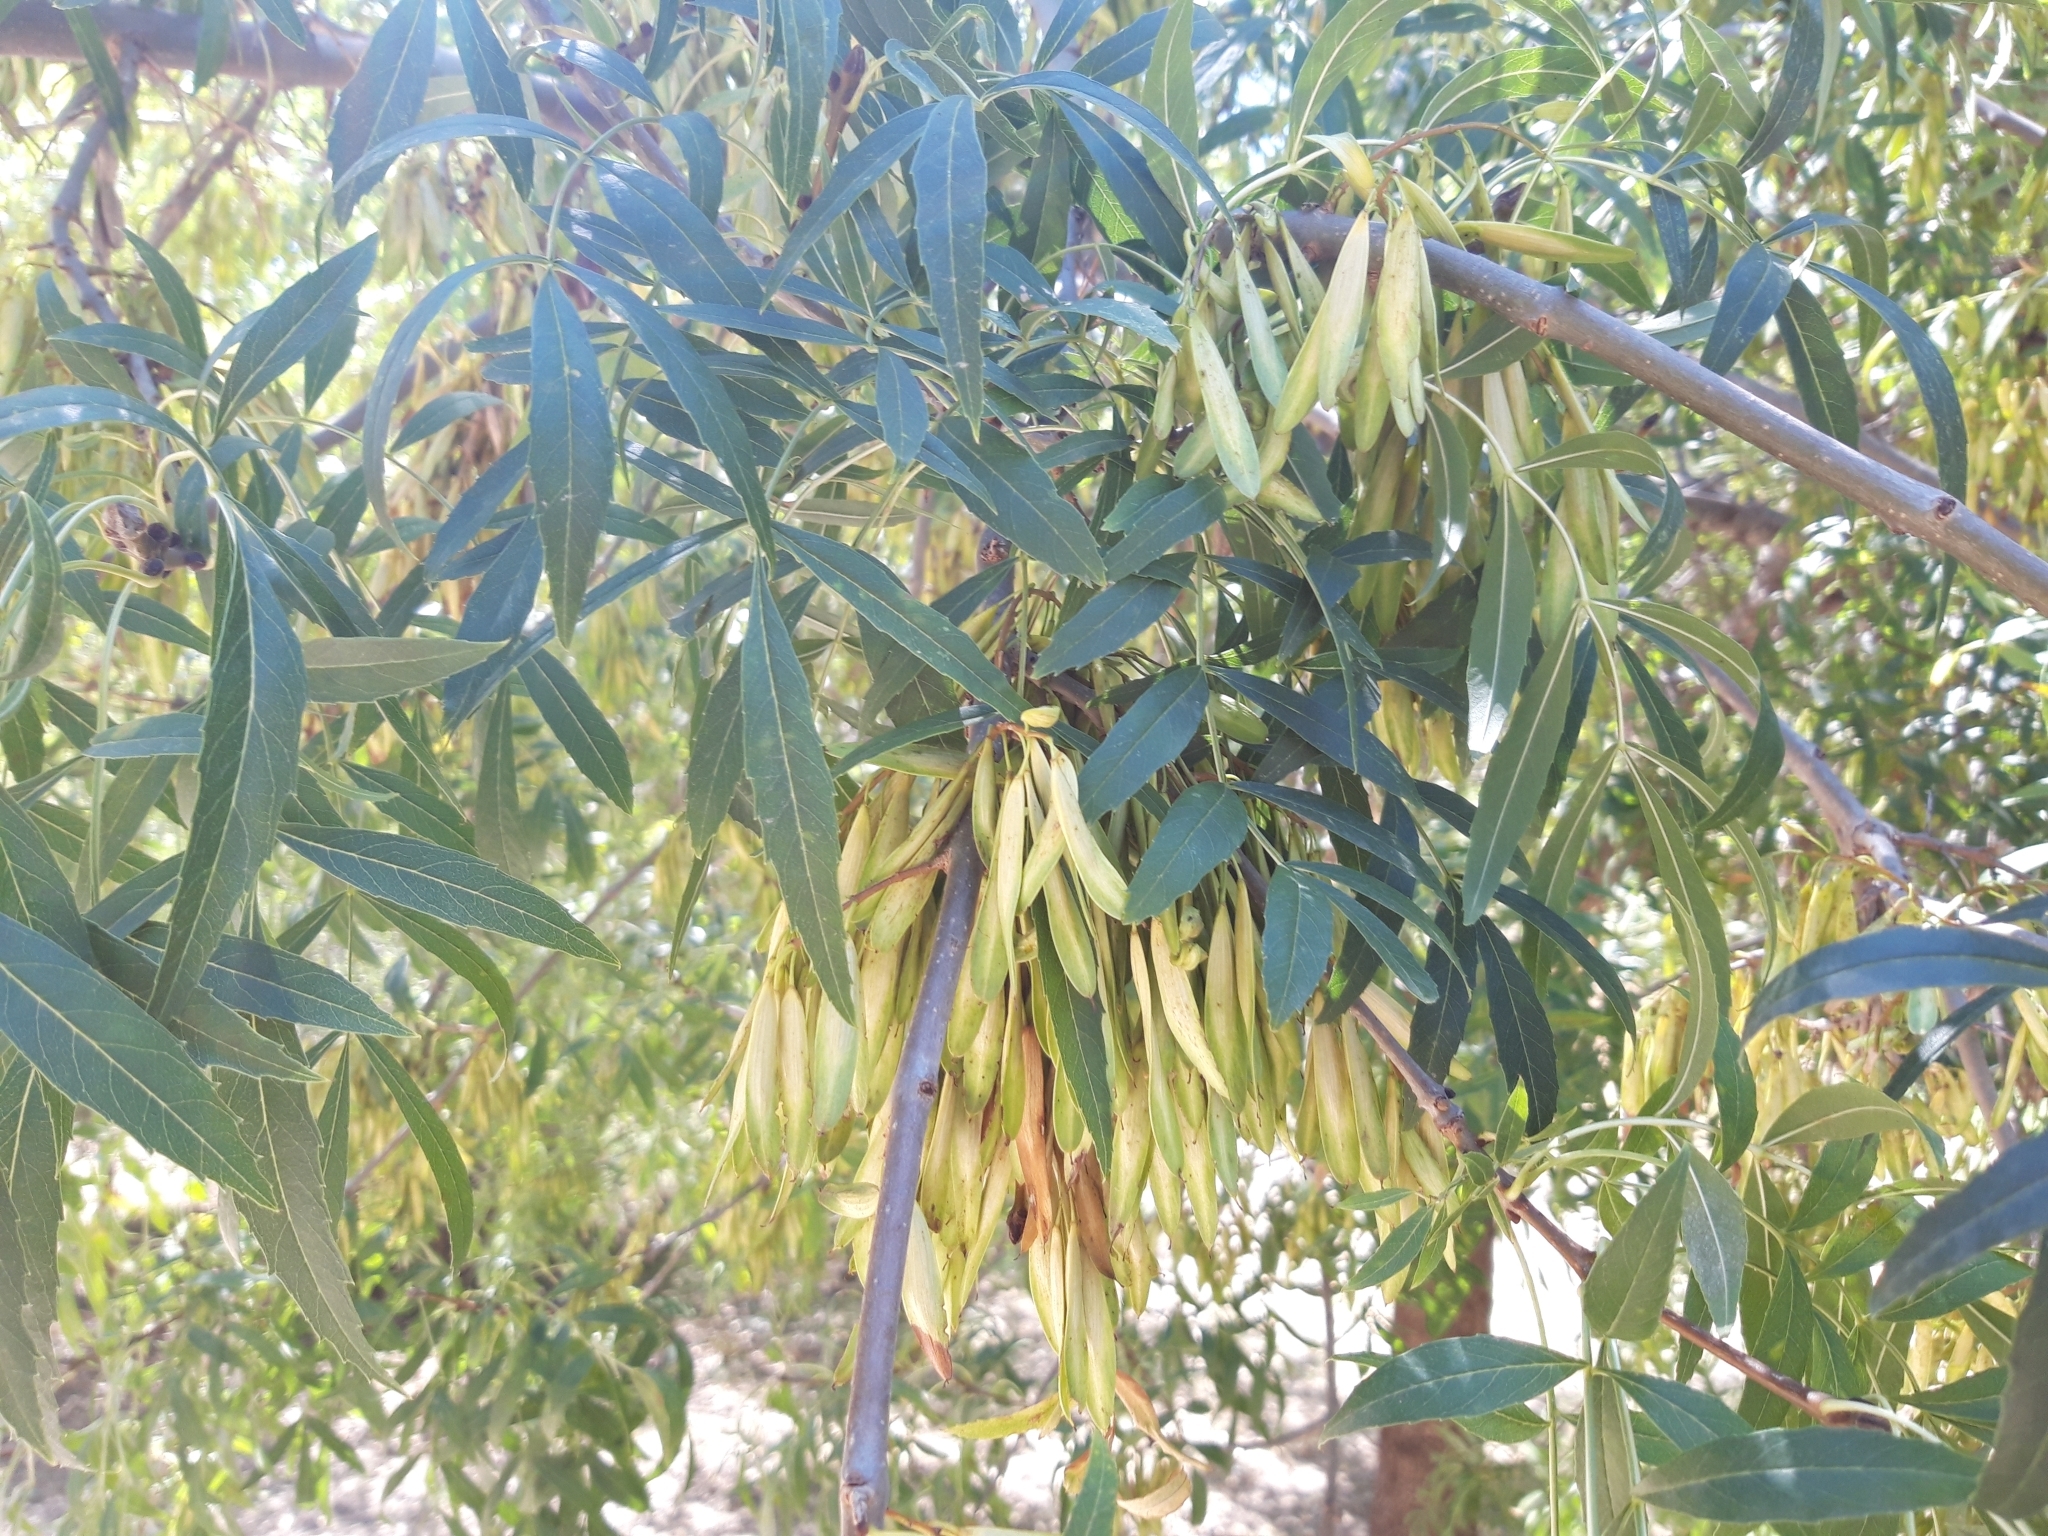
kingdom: Plantae
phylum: Tracheophyta
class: Magnoliopsida
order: Lamiales
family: Oleaceae
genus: Fraxinus
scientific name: Fraxinus angustifolia
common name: Narrow-leafed ash
